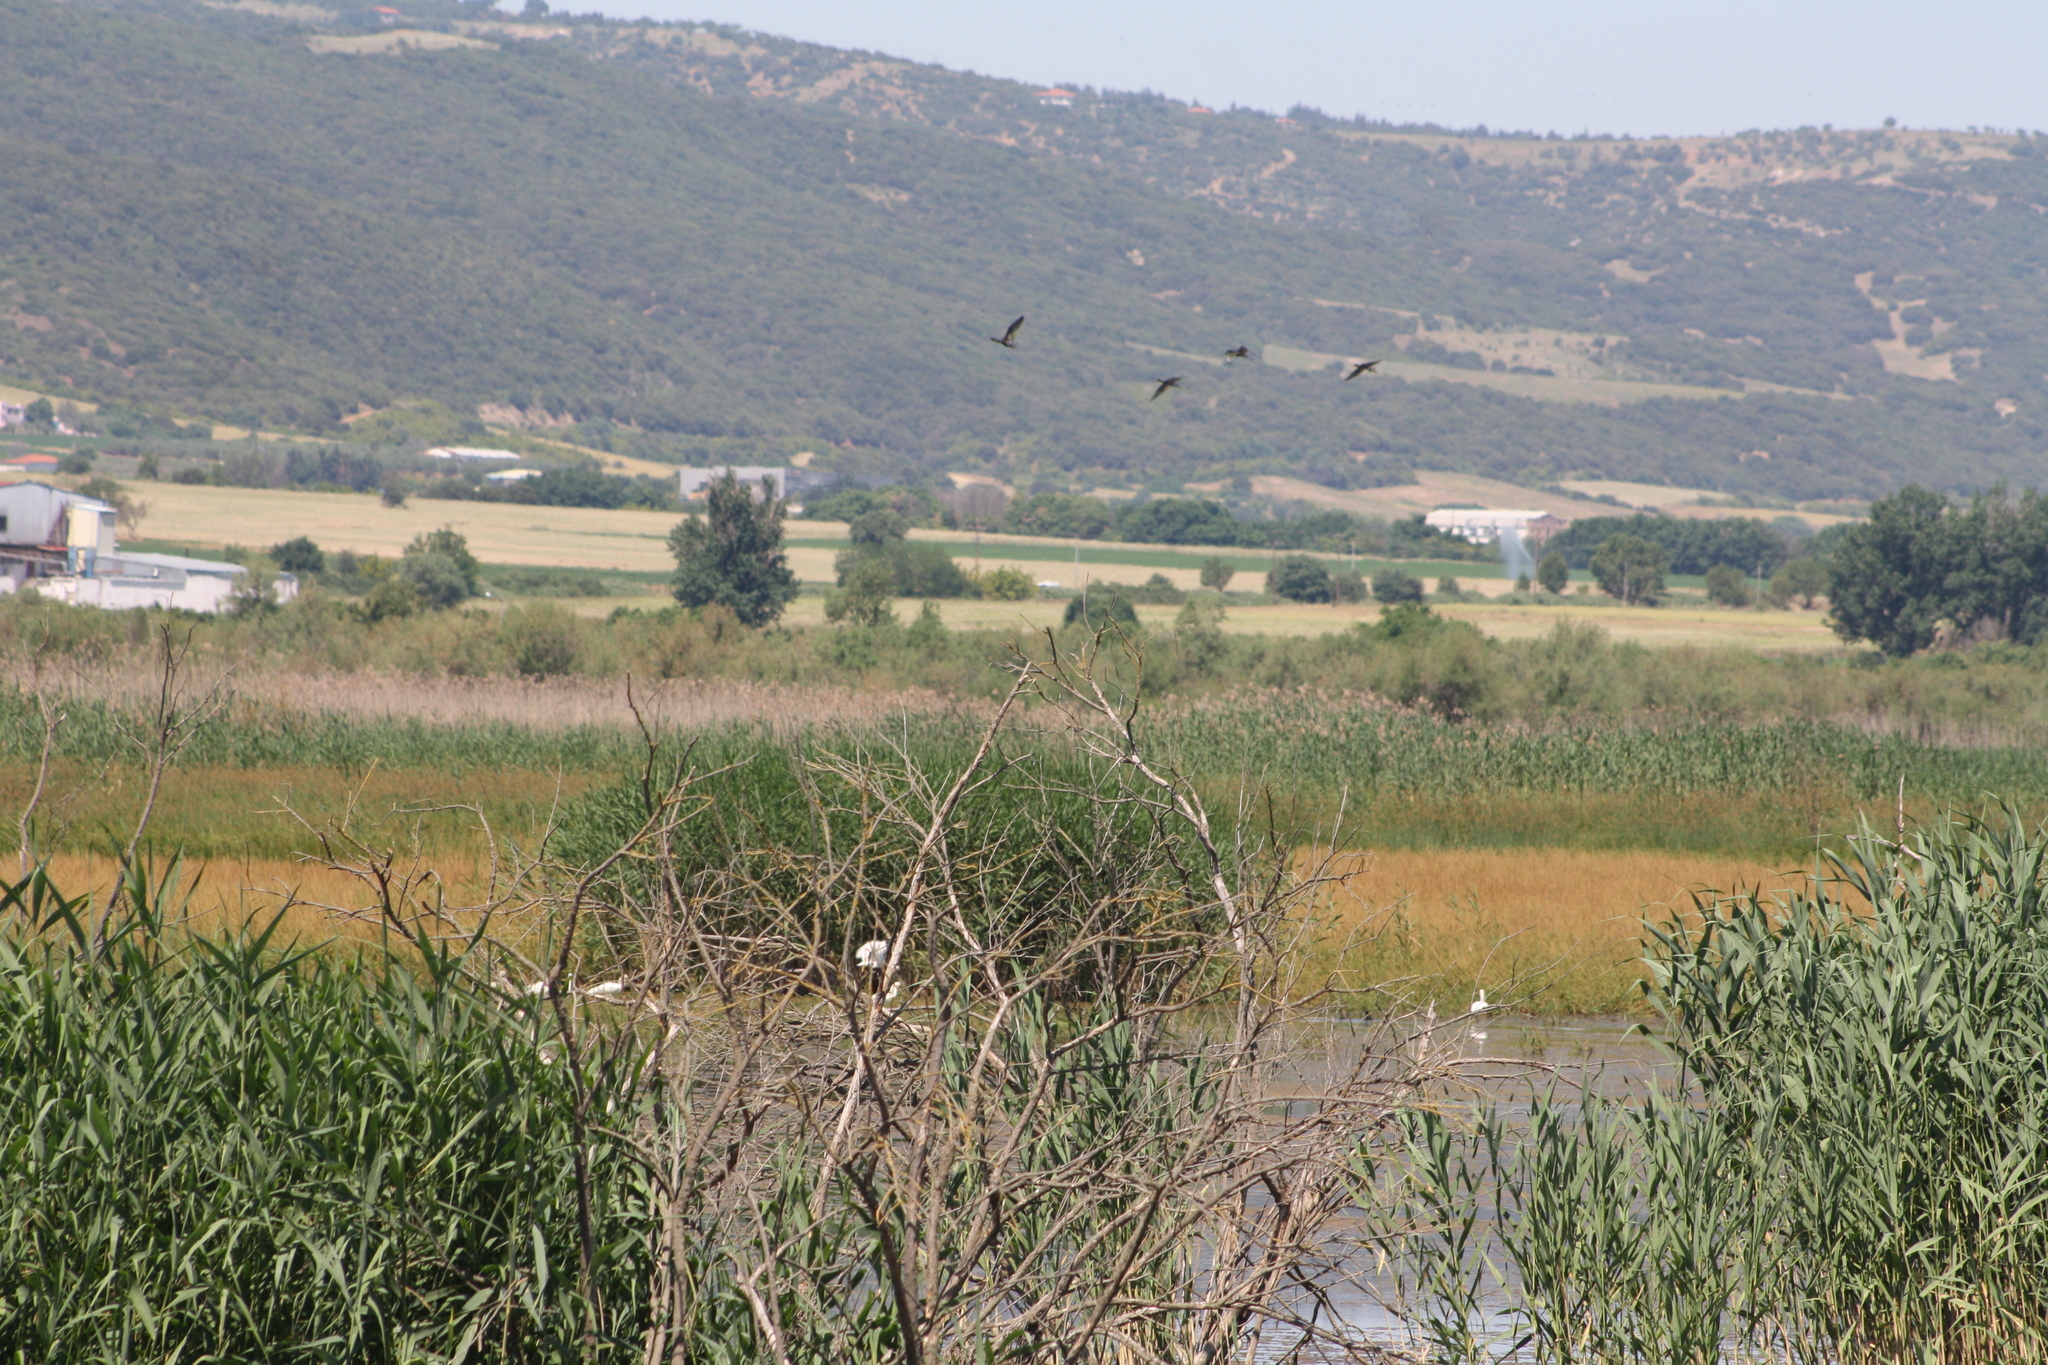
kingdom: Animalia
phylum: Chordata
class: Aves
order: Pelecaniformes
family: Threskiornithidae
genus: Plegadis
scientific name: Plegadis falcinellus
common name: Glossy ibis
